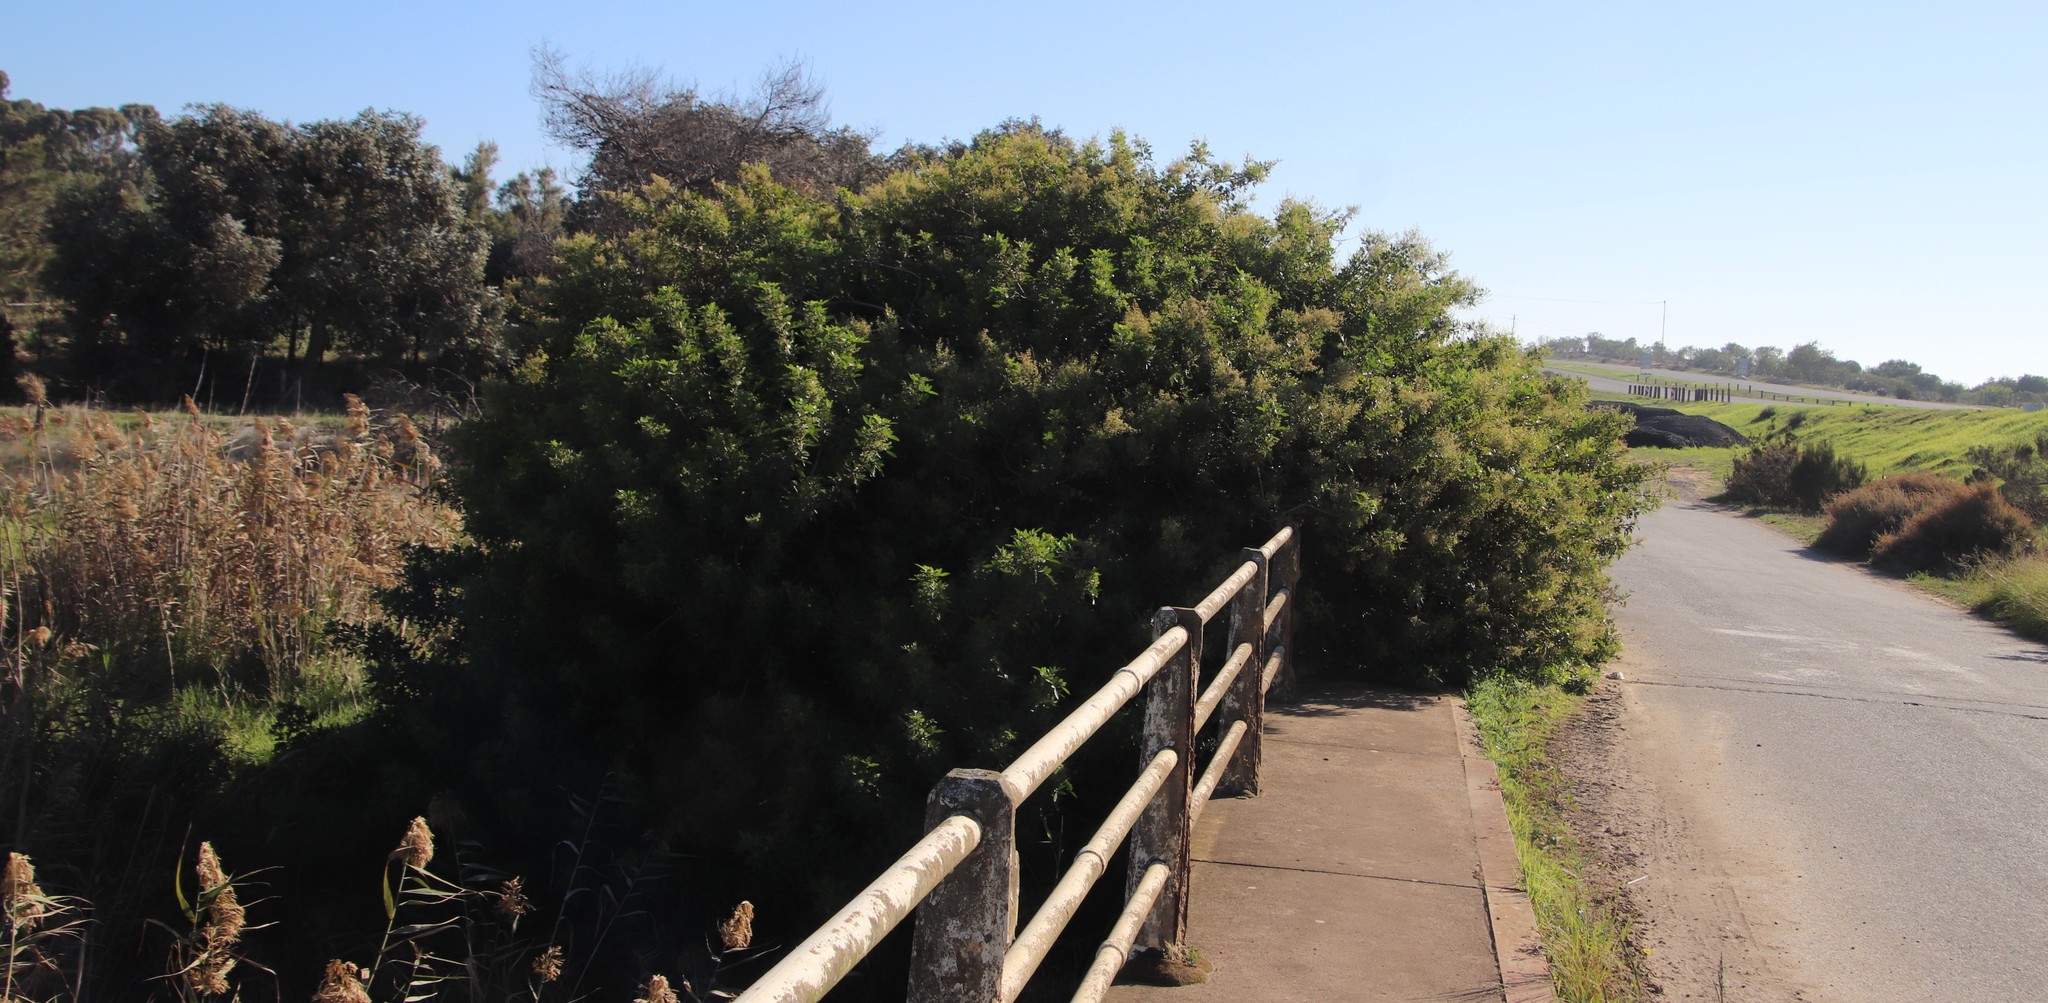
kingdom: Plantae
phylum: Tracheophyta
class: Magnoliopsida
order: Sapindales
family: Anacardiaceae
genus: Schinus
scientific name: Schinus terebinthifolia
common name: Brazilian peppertree
